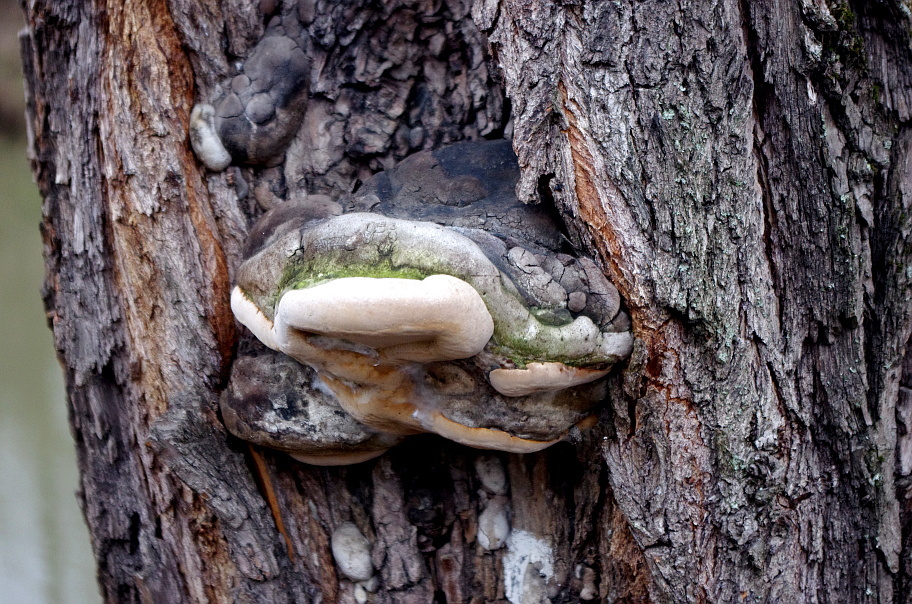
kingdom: Fungi
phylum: Basidiomycota
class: Agaricomycetes
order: Hymenochaetales
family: Hymenochaetaceae
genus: Phellinus
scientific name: Phellinus igniarius
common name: Willow bracket
